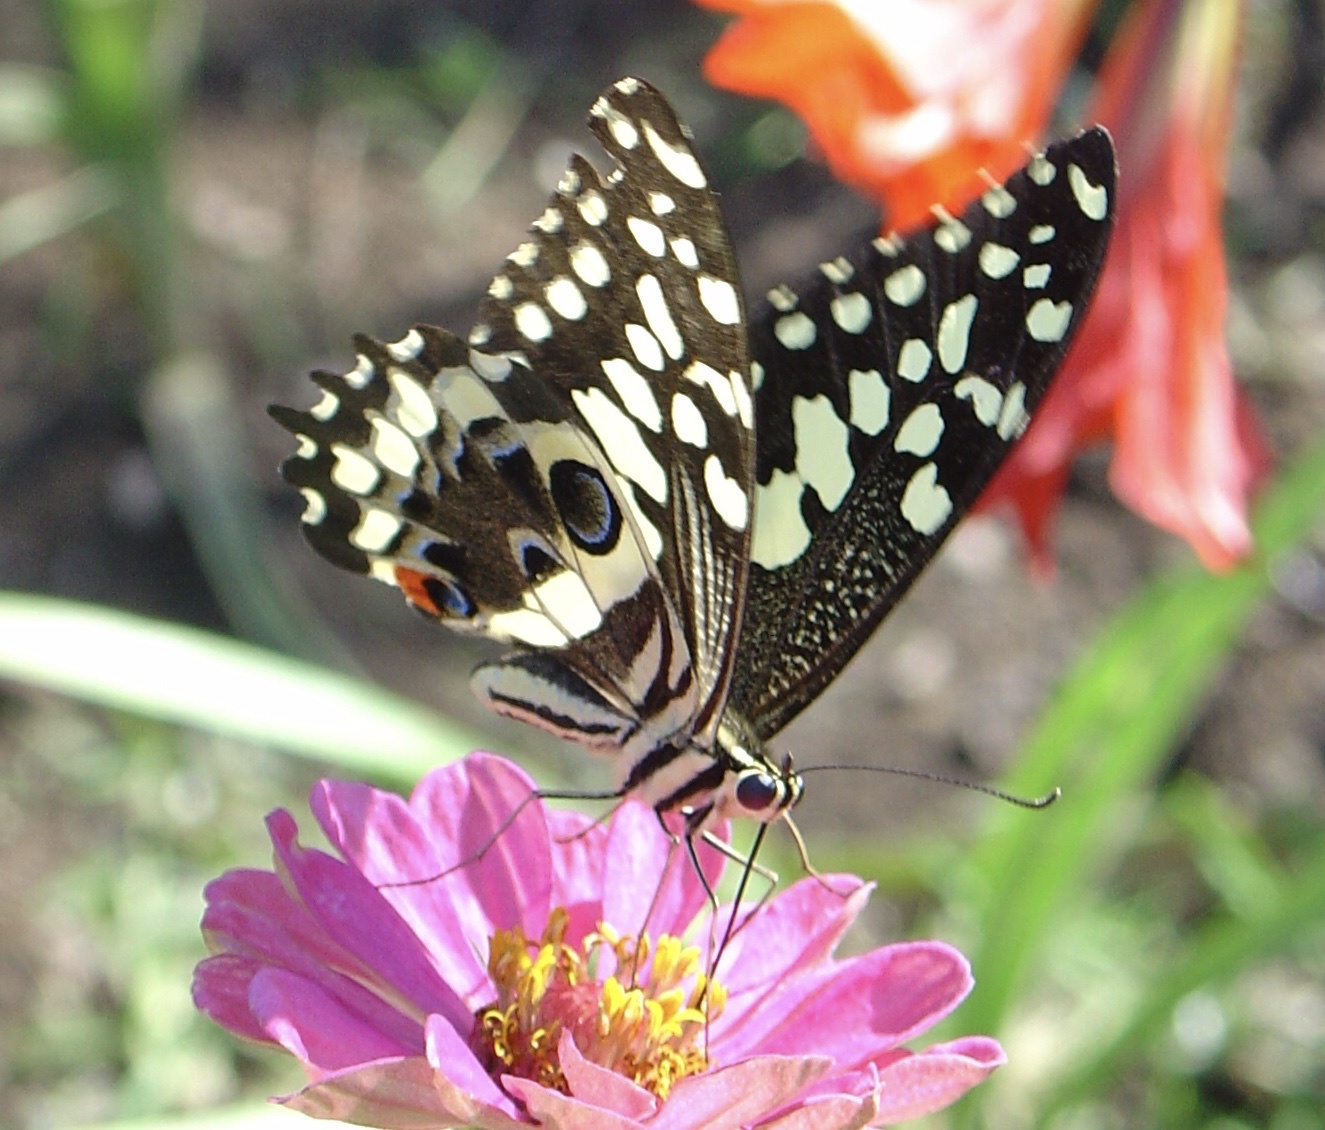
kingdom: Animalia
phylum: Arthropoda
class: Insecta
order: Lepidoptera
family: Papilionidae
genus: Papilio
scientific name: Papilio demodocus
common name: Christmas butterfly
